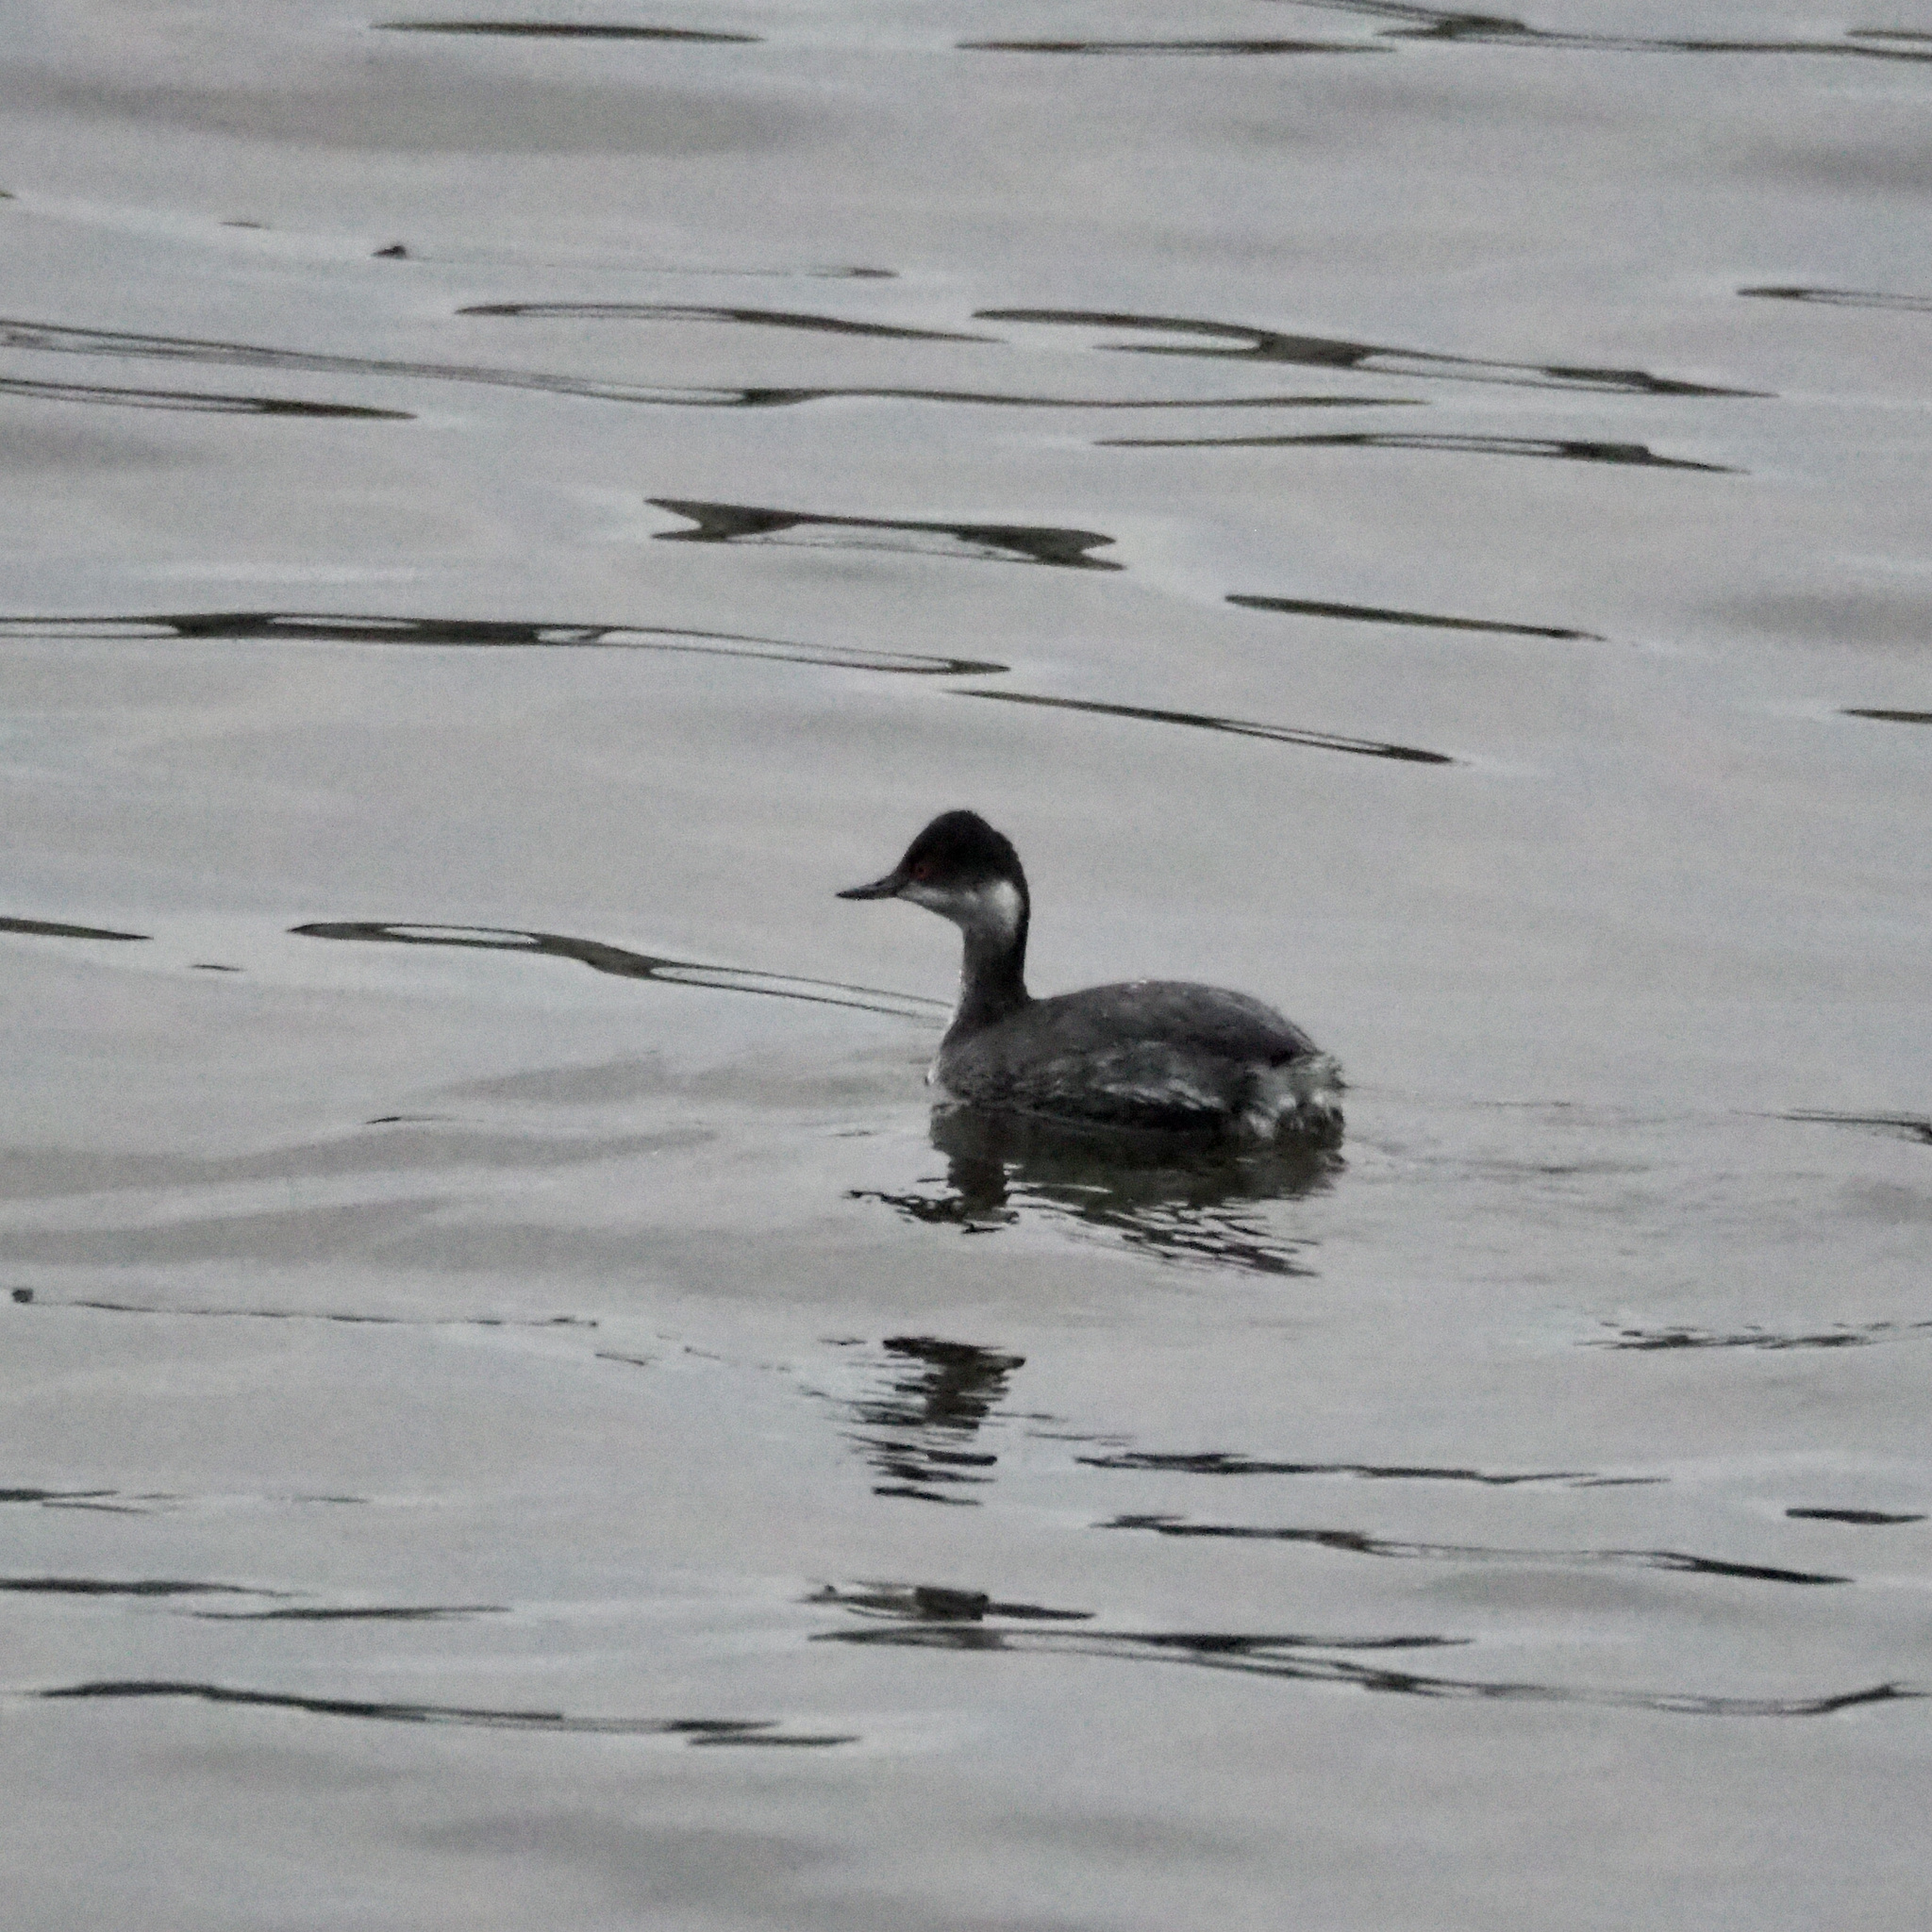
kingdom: Animalia
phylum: Chordata
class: Aves
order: Podicipediformes
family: Podicipedidae
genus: Podiceps
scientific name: Podiceps nigricollis
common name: Black-necked grebe
